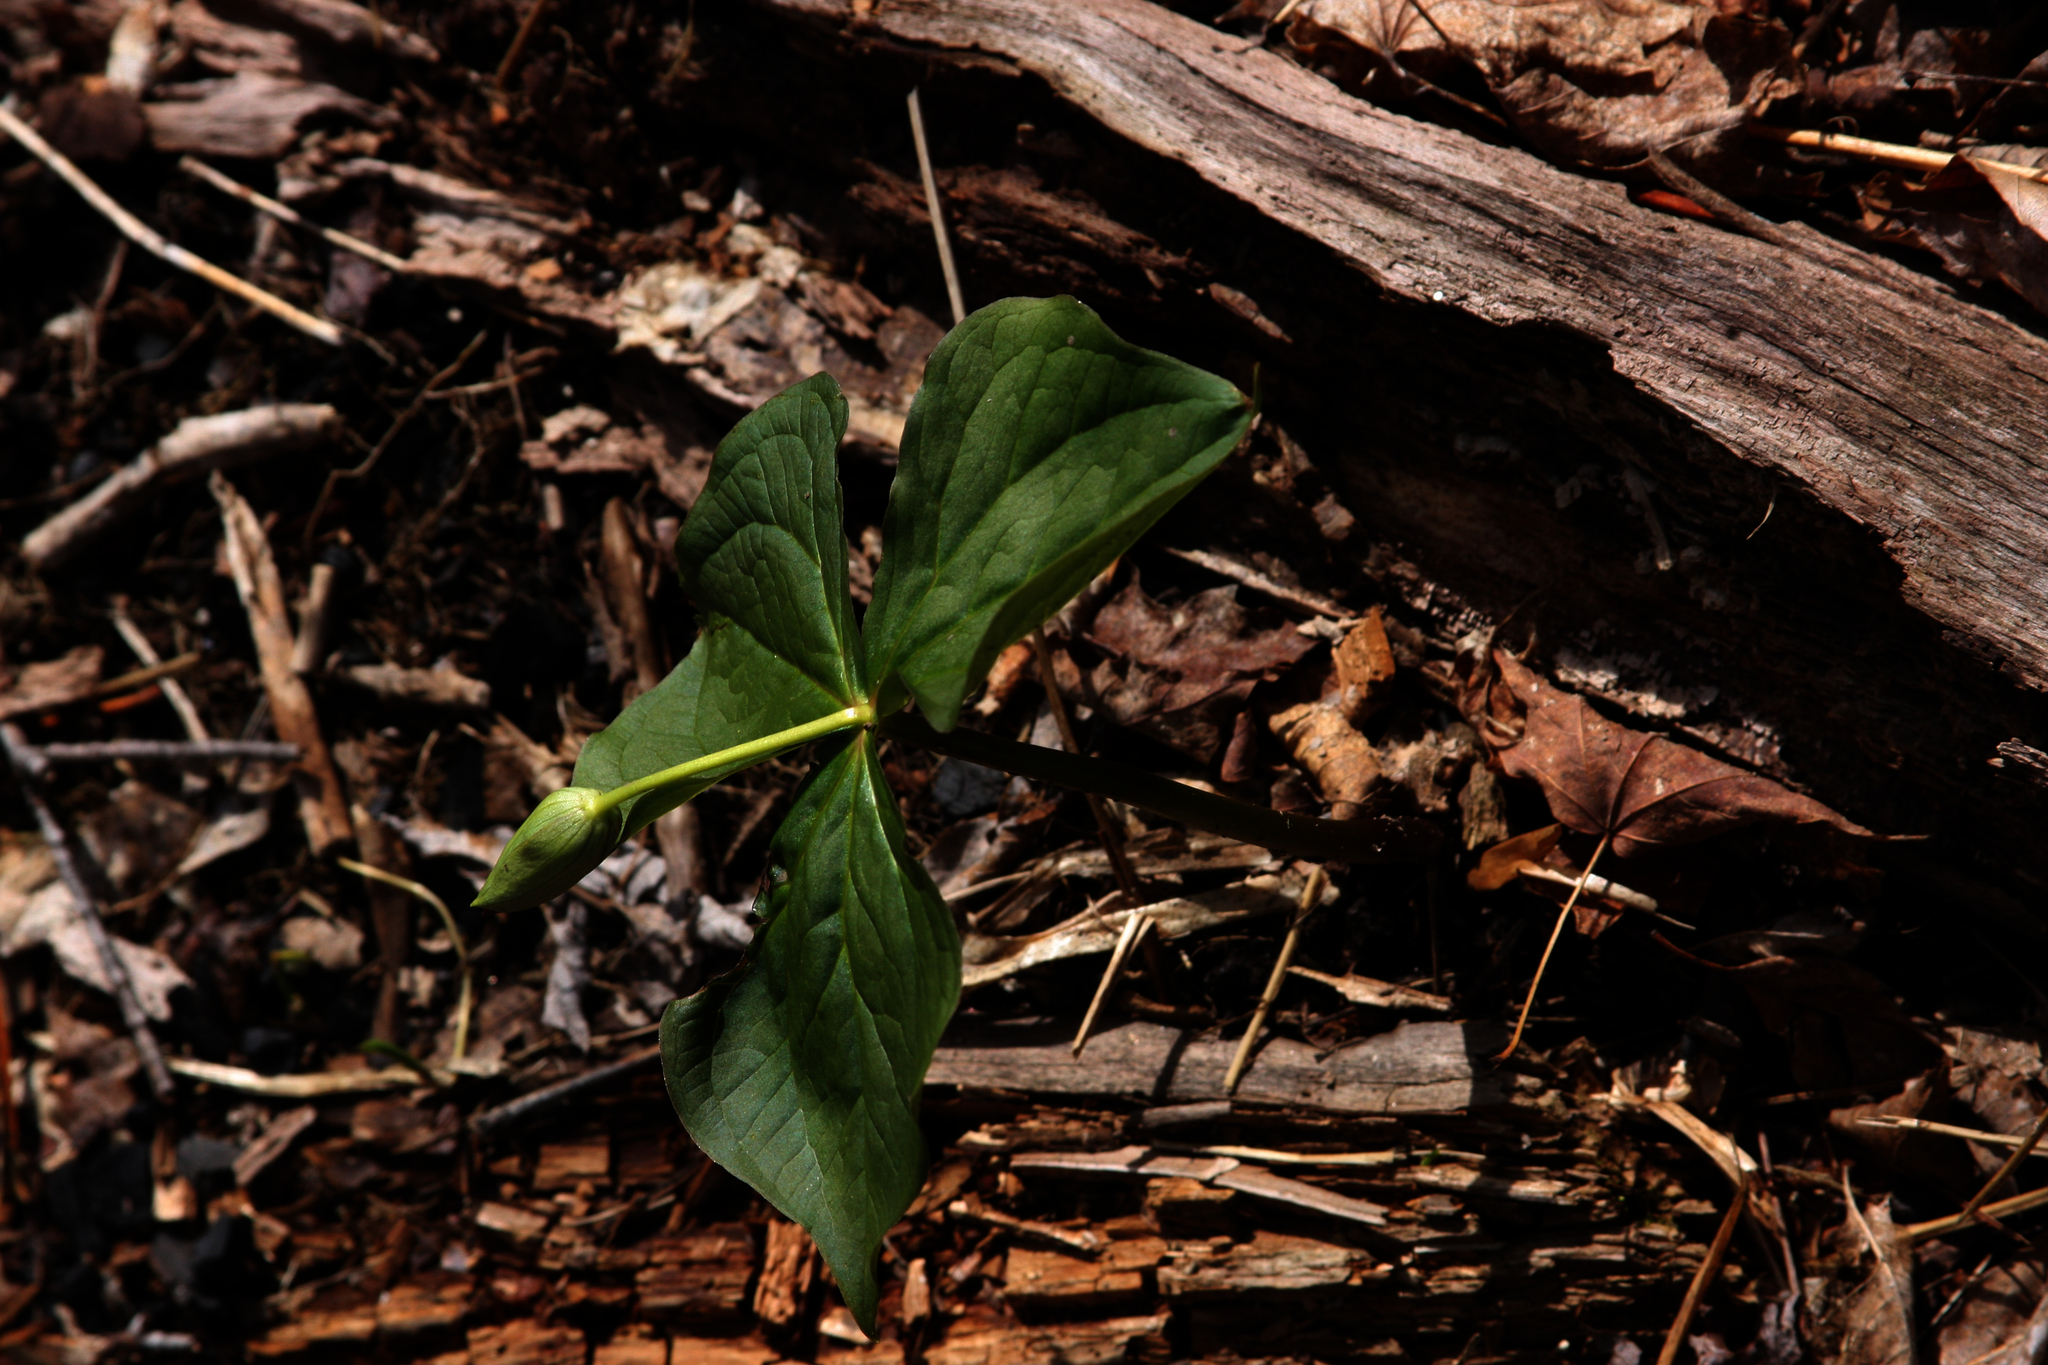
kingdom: Plantae
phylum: Tracheophyta
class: Liliopsida
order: Liliales
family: Melanthiaceae
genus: Trillium
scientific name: Trillium erectum
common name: Purple trillium
